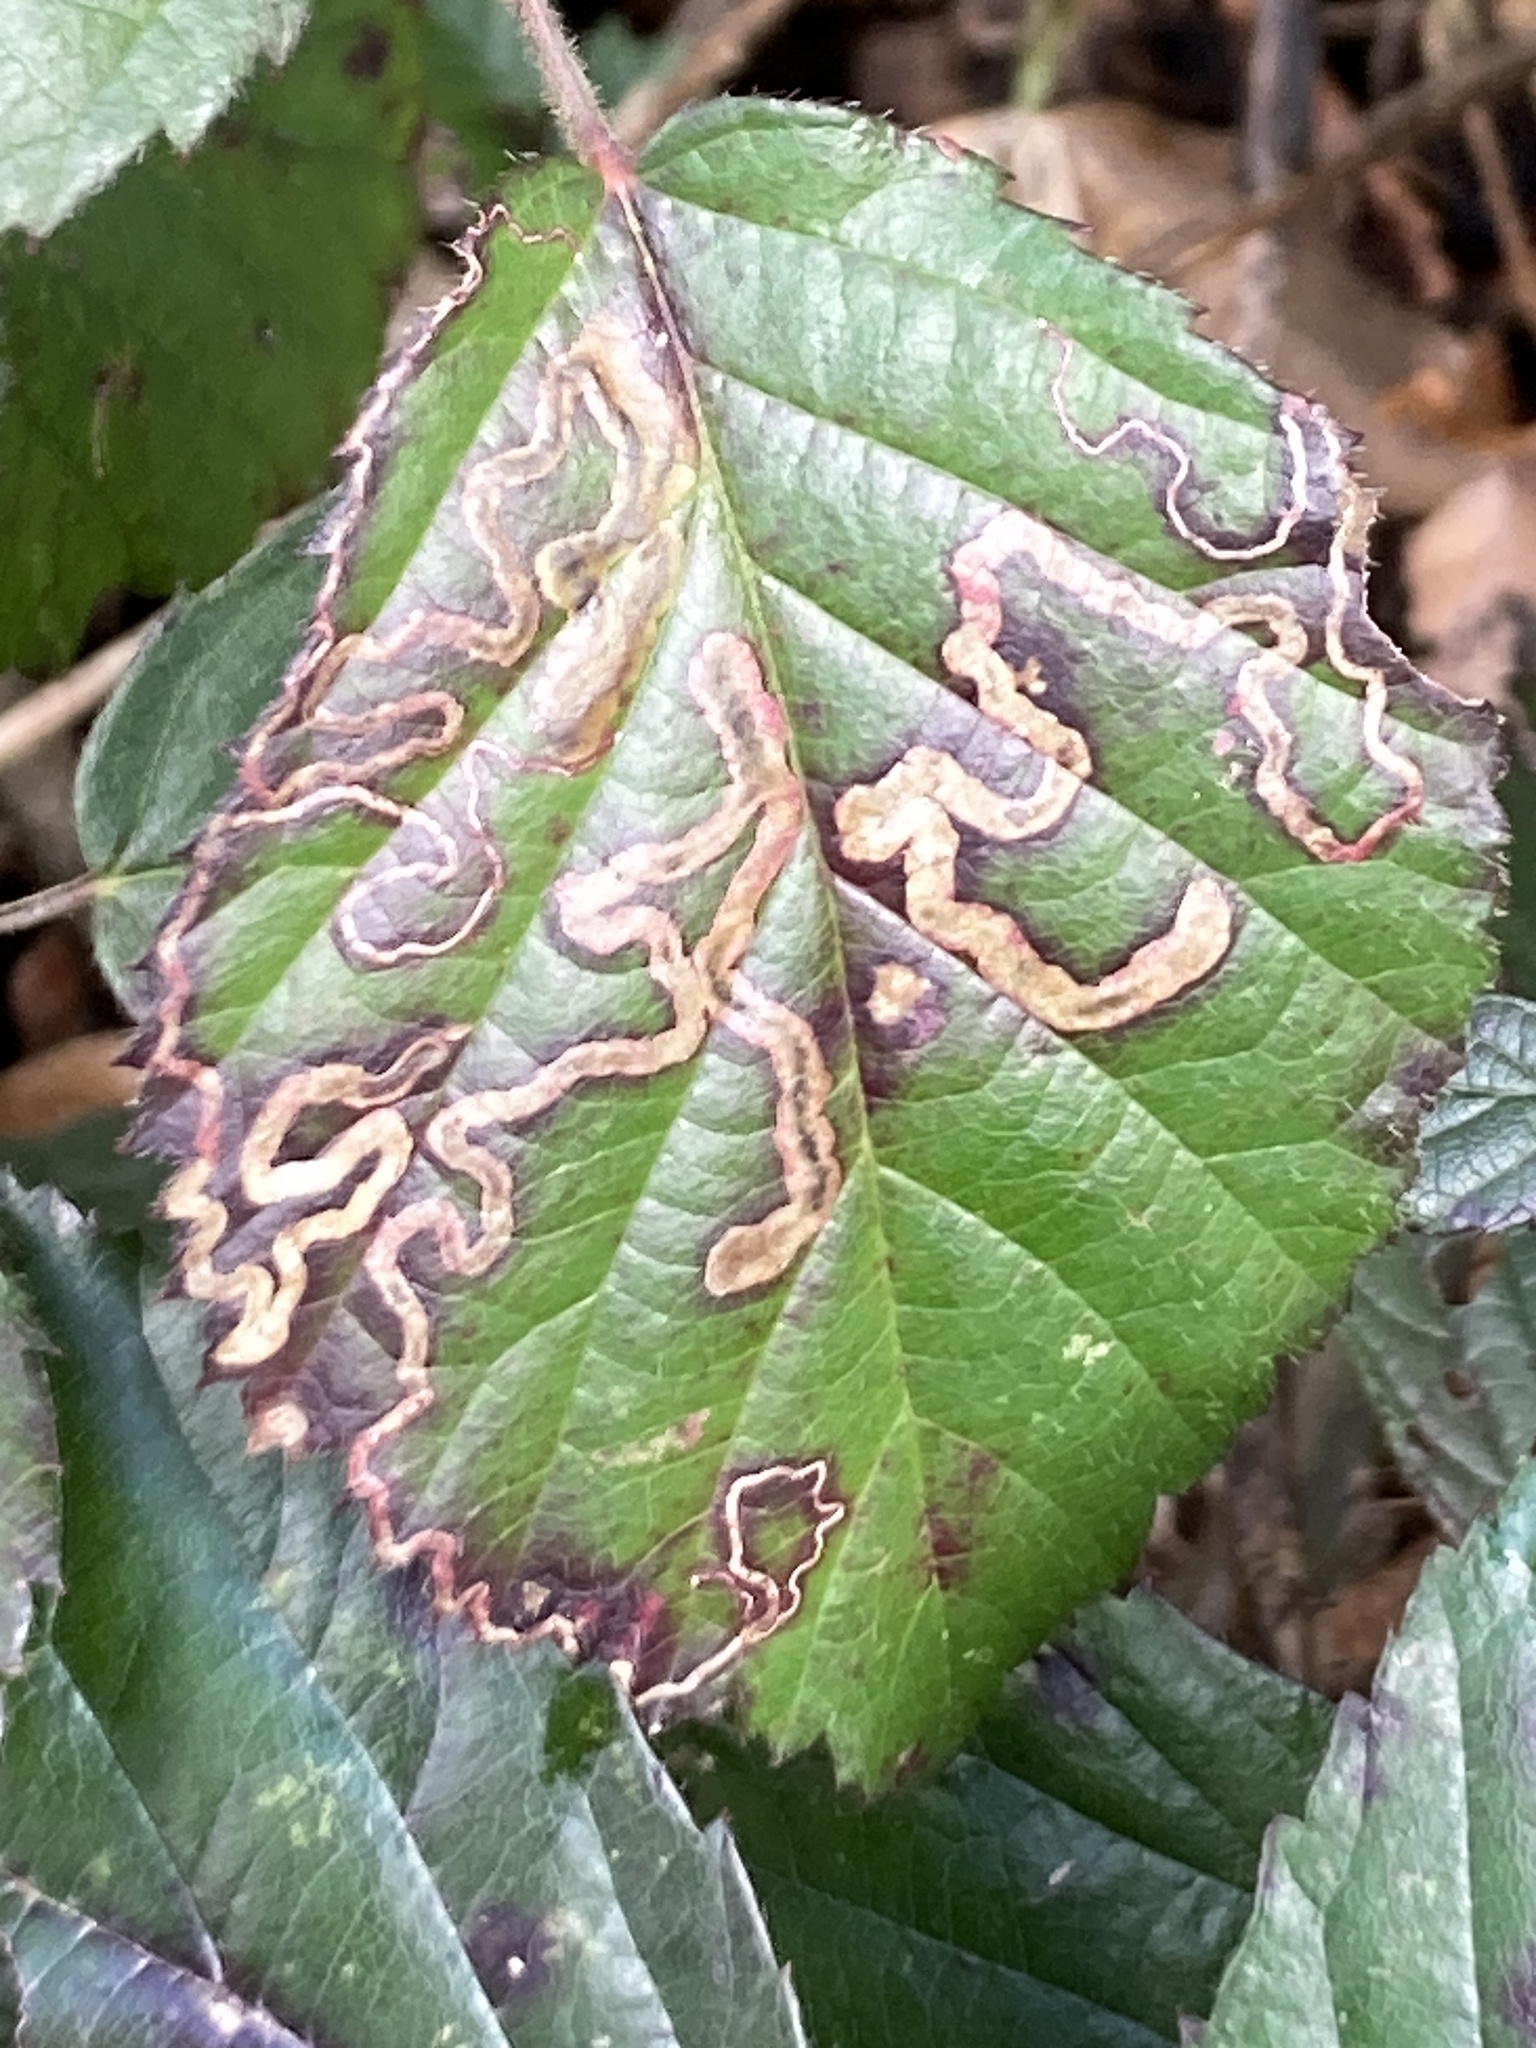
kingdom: Animalia
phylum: Arthropoda
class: Insecta
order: Lepidoptera
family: Nepticulidae
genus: Stigmella
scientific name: Stigmella aurella
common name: Golden pigmy
